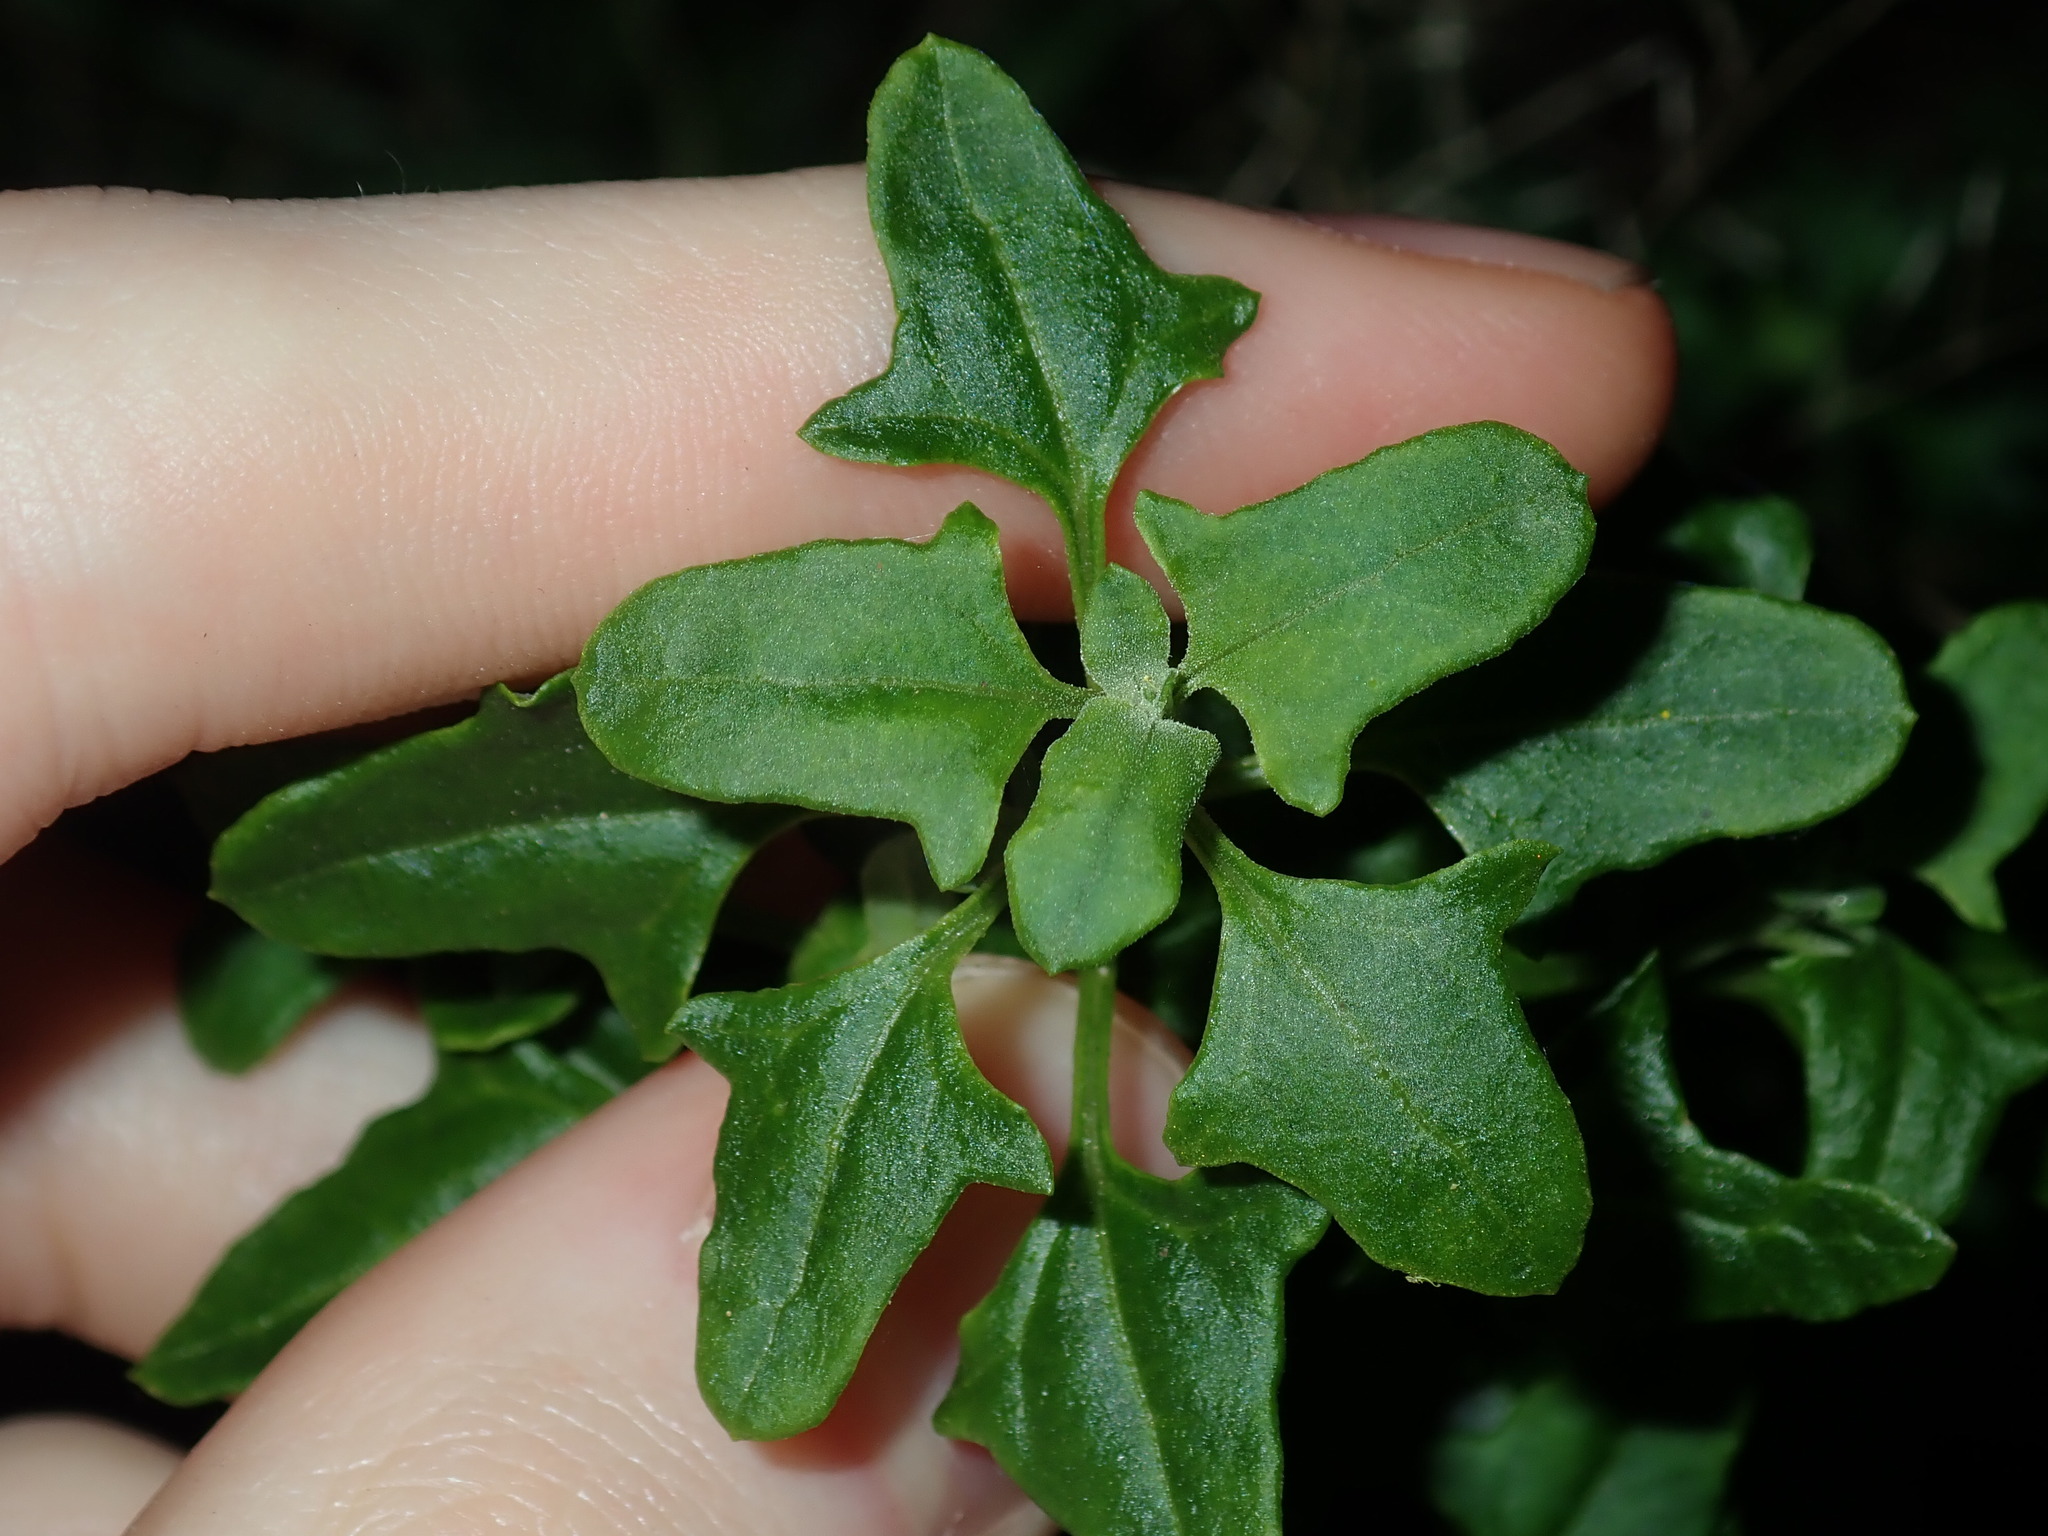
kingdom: Plantae
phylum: Tracheophyta
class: Magnoliopsida
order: Caryophyllales
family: Amaranthaceae
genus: Chenopodium
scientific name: Chenopodium robertianum
